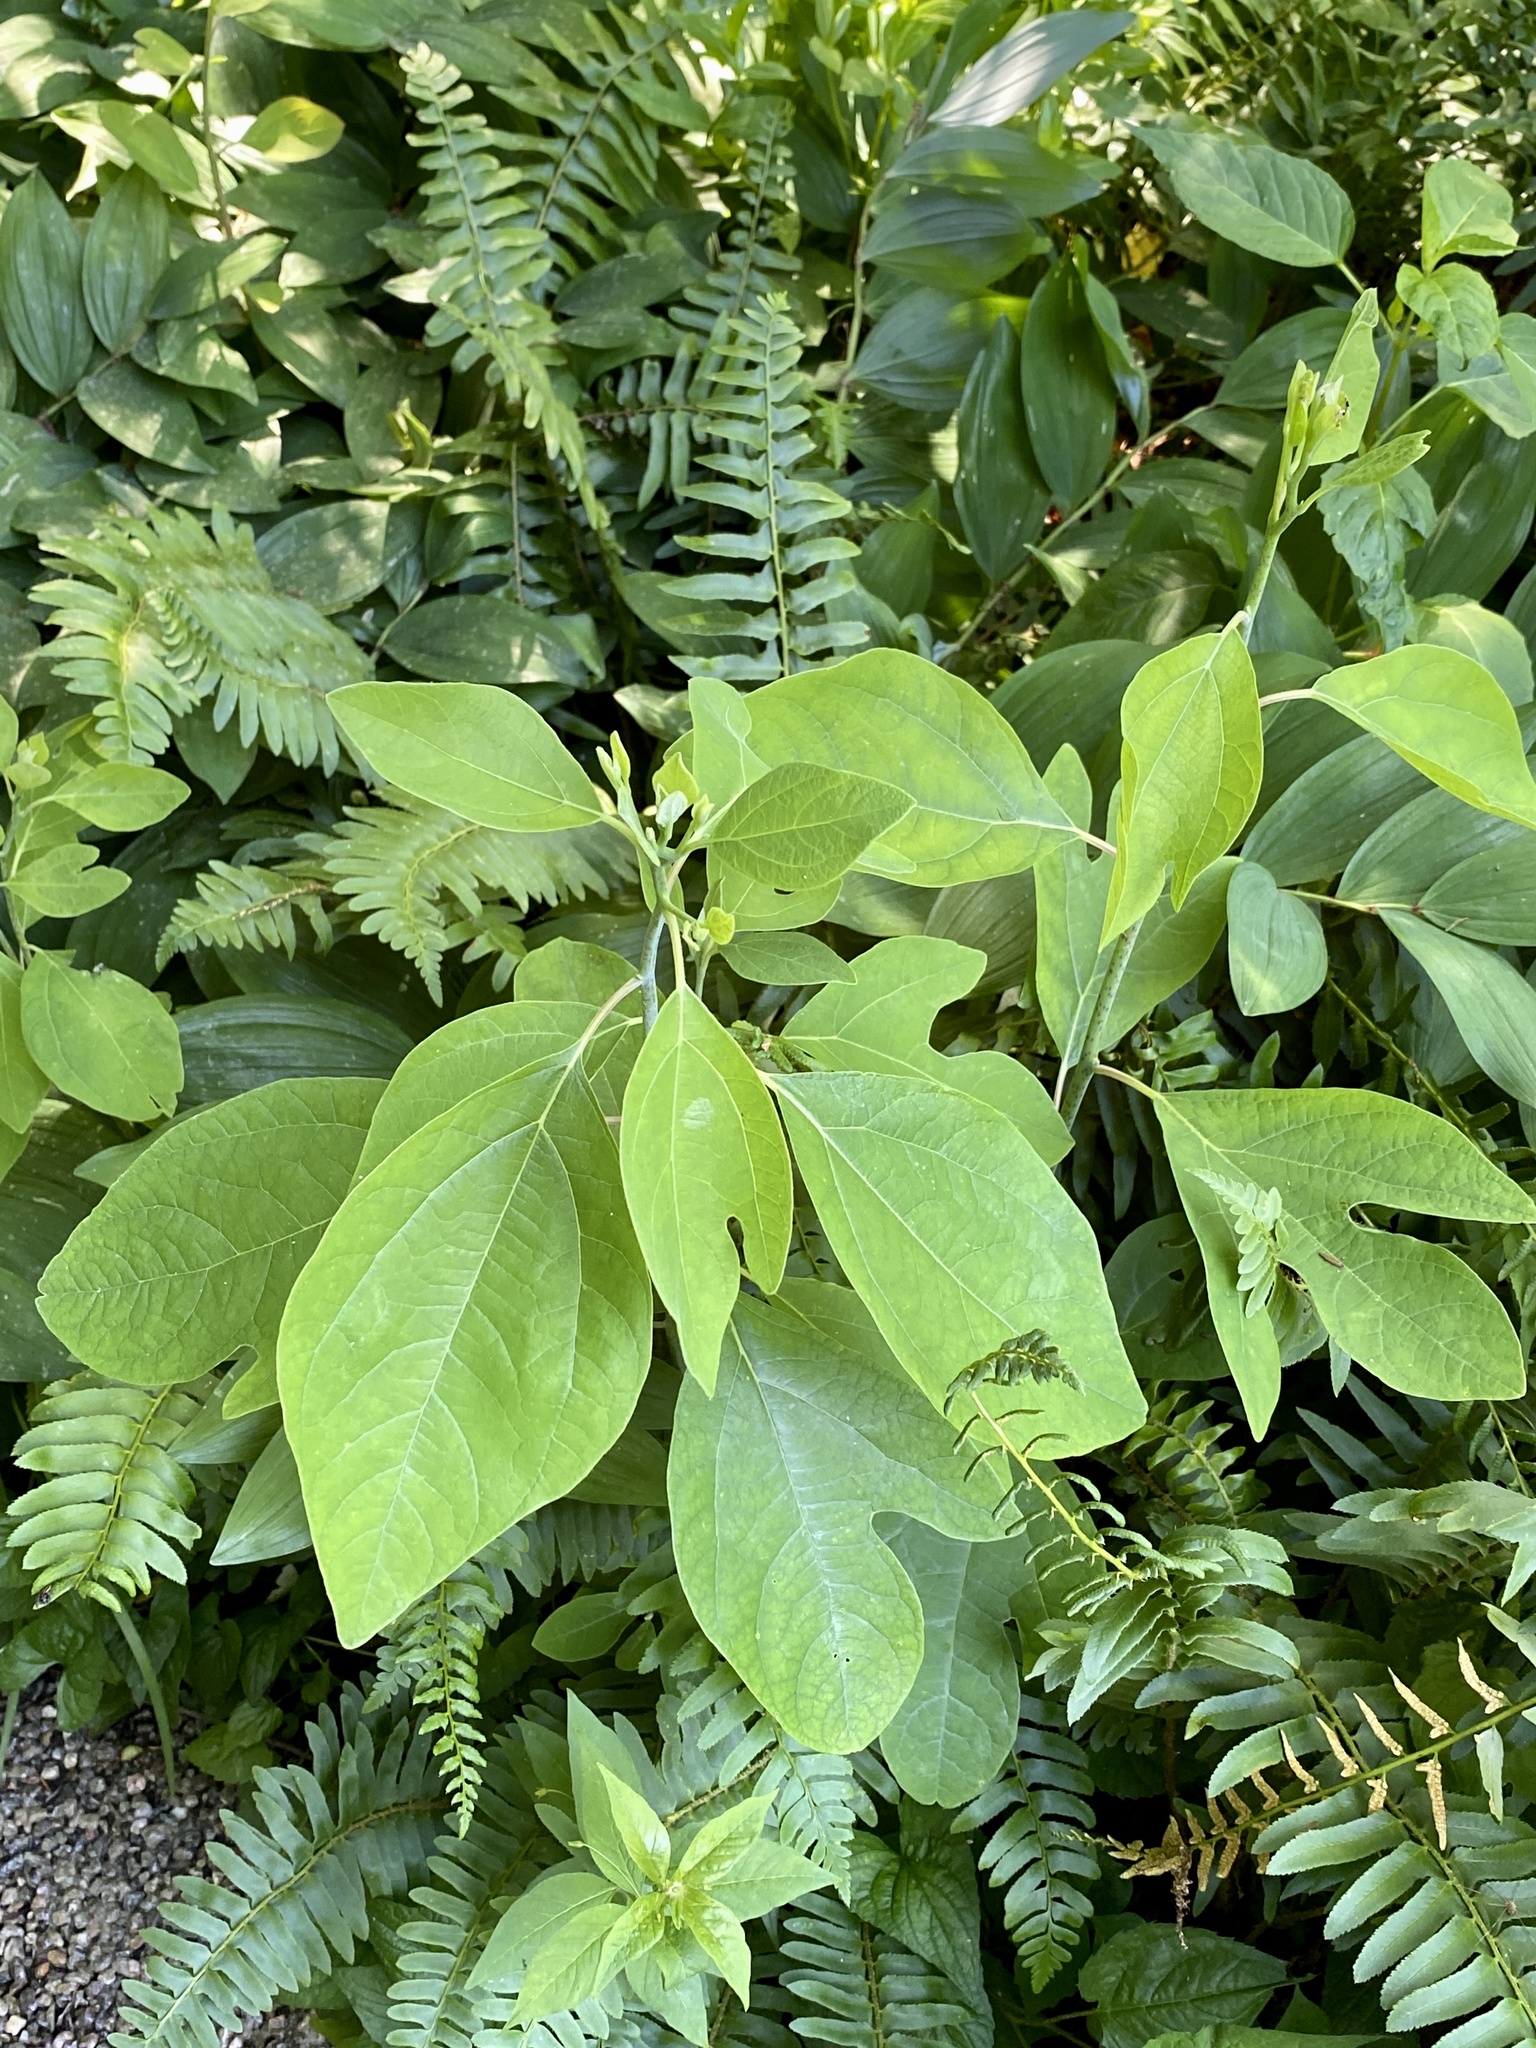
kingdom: Plantae
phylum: Tracheophyta
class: Magnoliopsida
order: Laurales
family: Lauraceae
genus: Sassafras
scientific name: Sassafras albidum
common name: Sassafras
